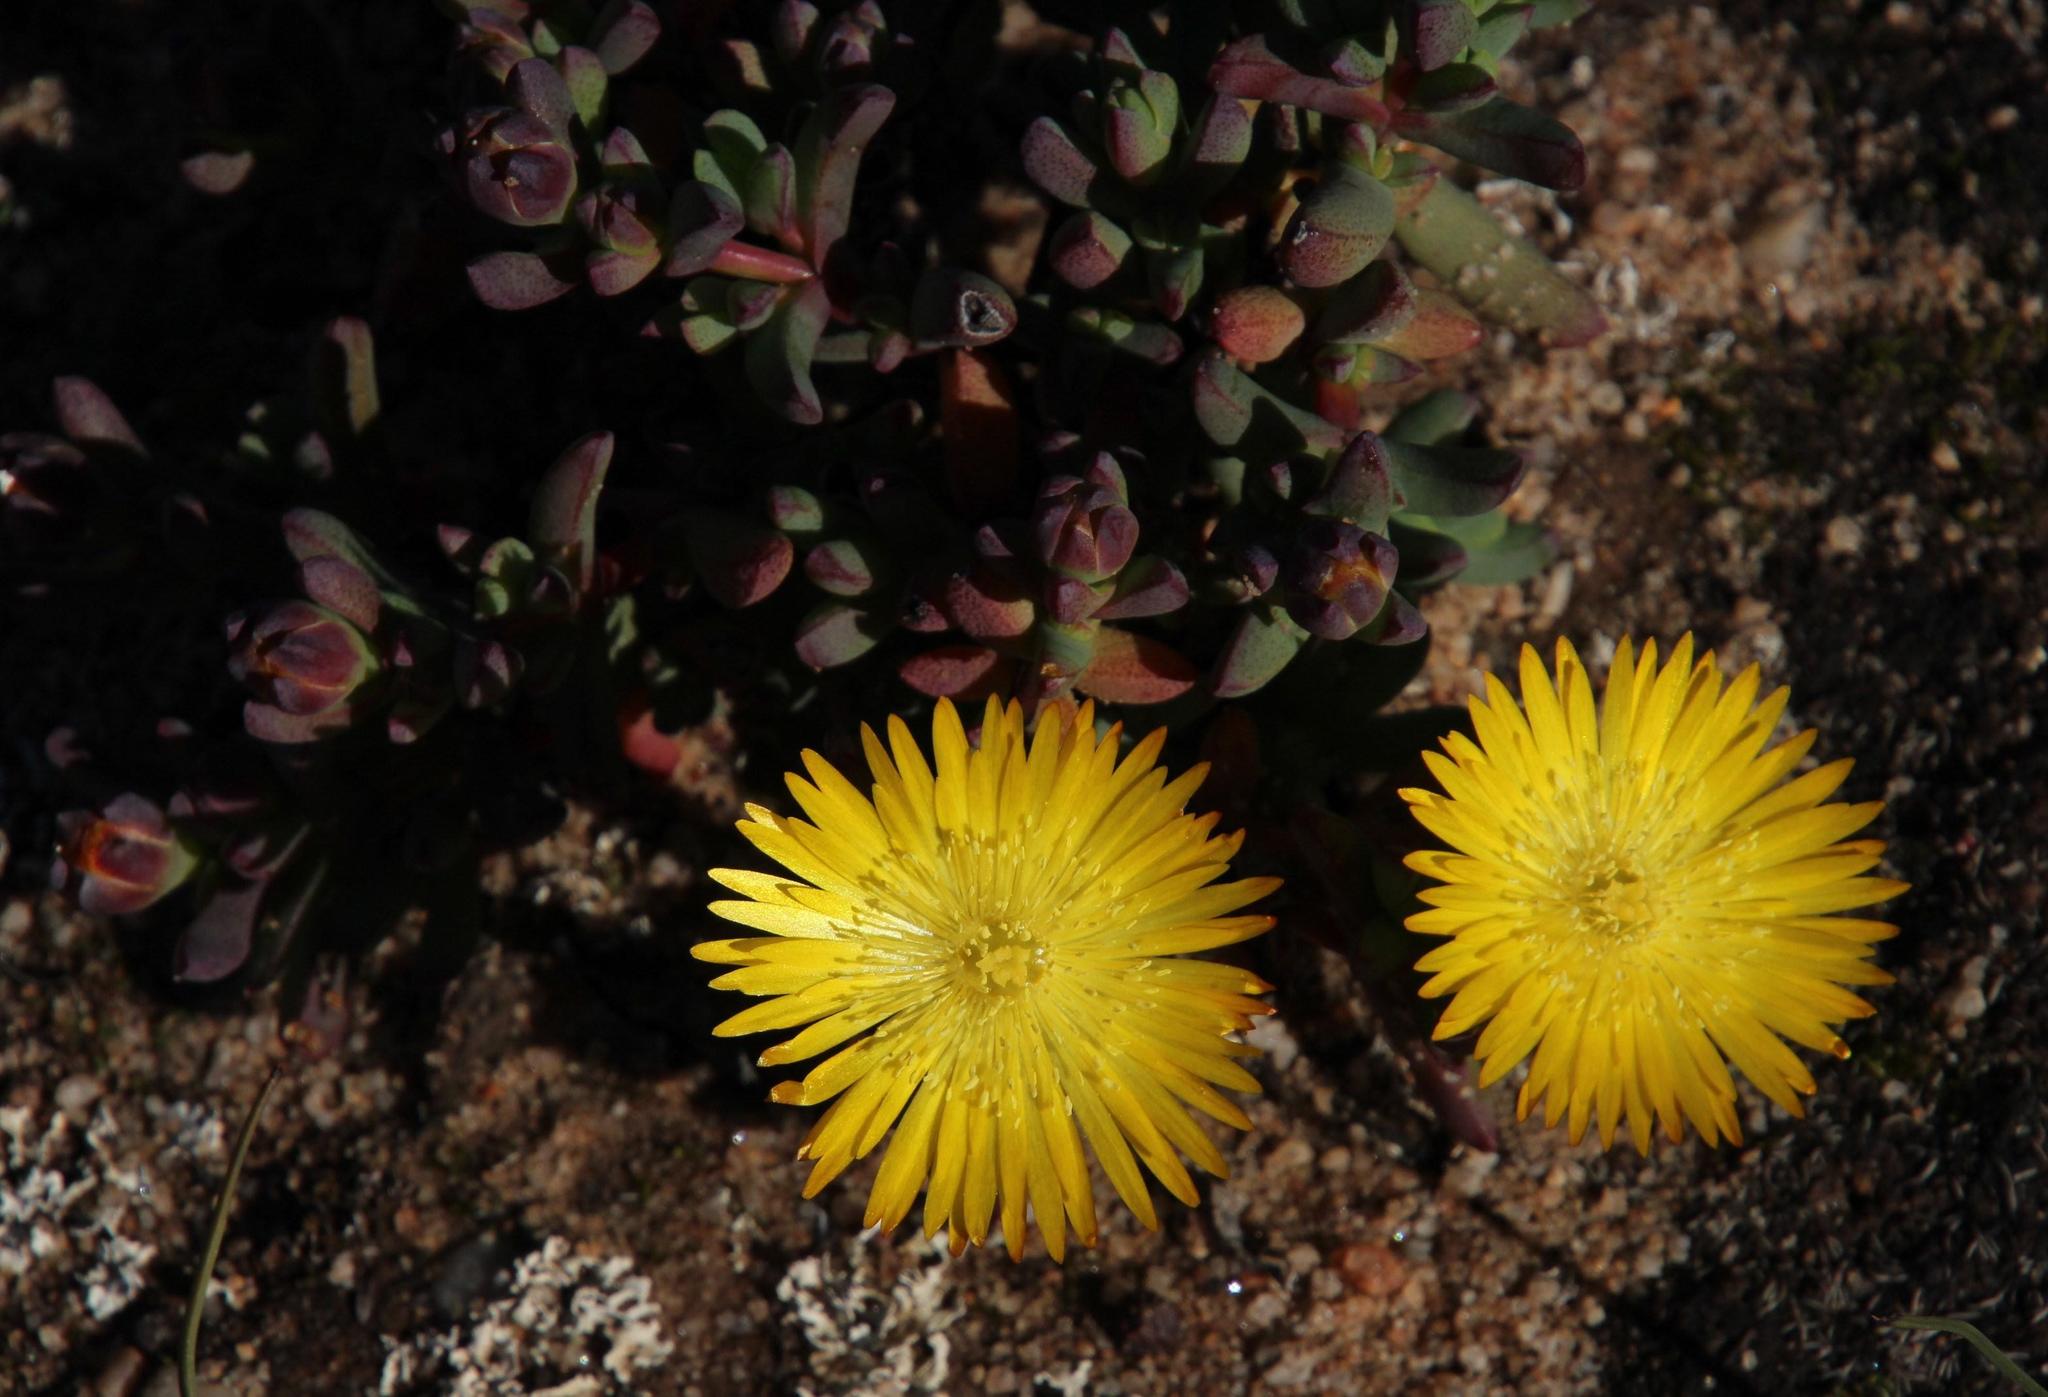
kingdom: Plantae
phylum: Tracheophyta
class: Magnoliopsida
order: Caryophyllales
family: Aizoaceae
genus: Lampranthus
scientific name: Lampranthus glaucus
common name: Noonflower
